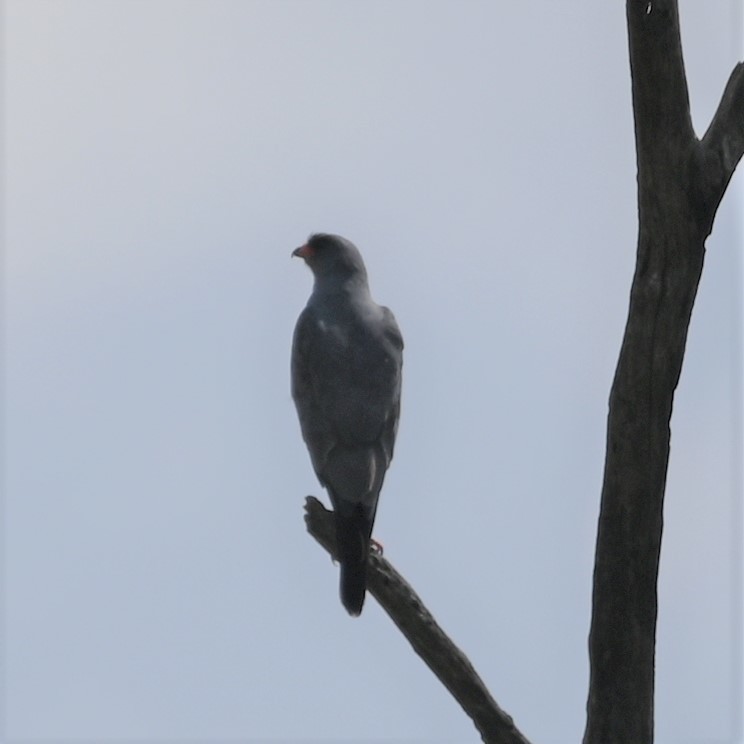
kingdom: Animalia
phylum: Chordata
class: Aves
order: Accipitriformes
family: Accipitridae
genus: Melierax
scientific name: Melierax metabates
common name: Dark chanting-goshawk
